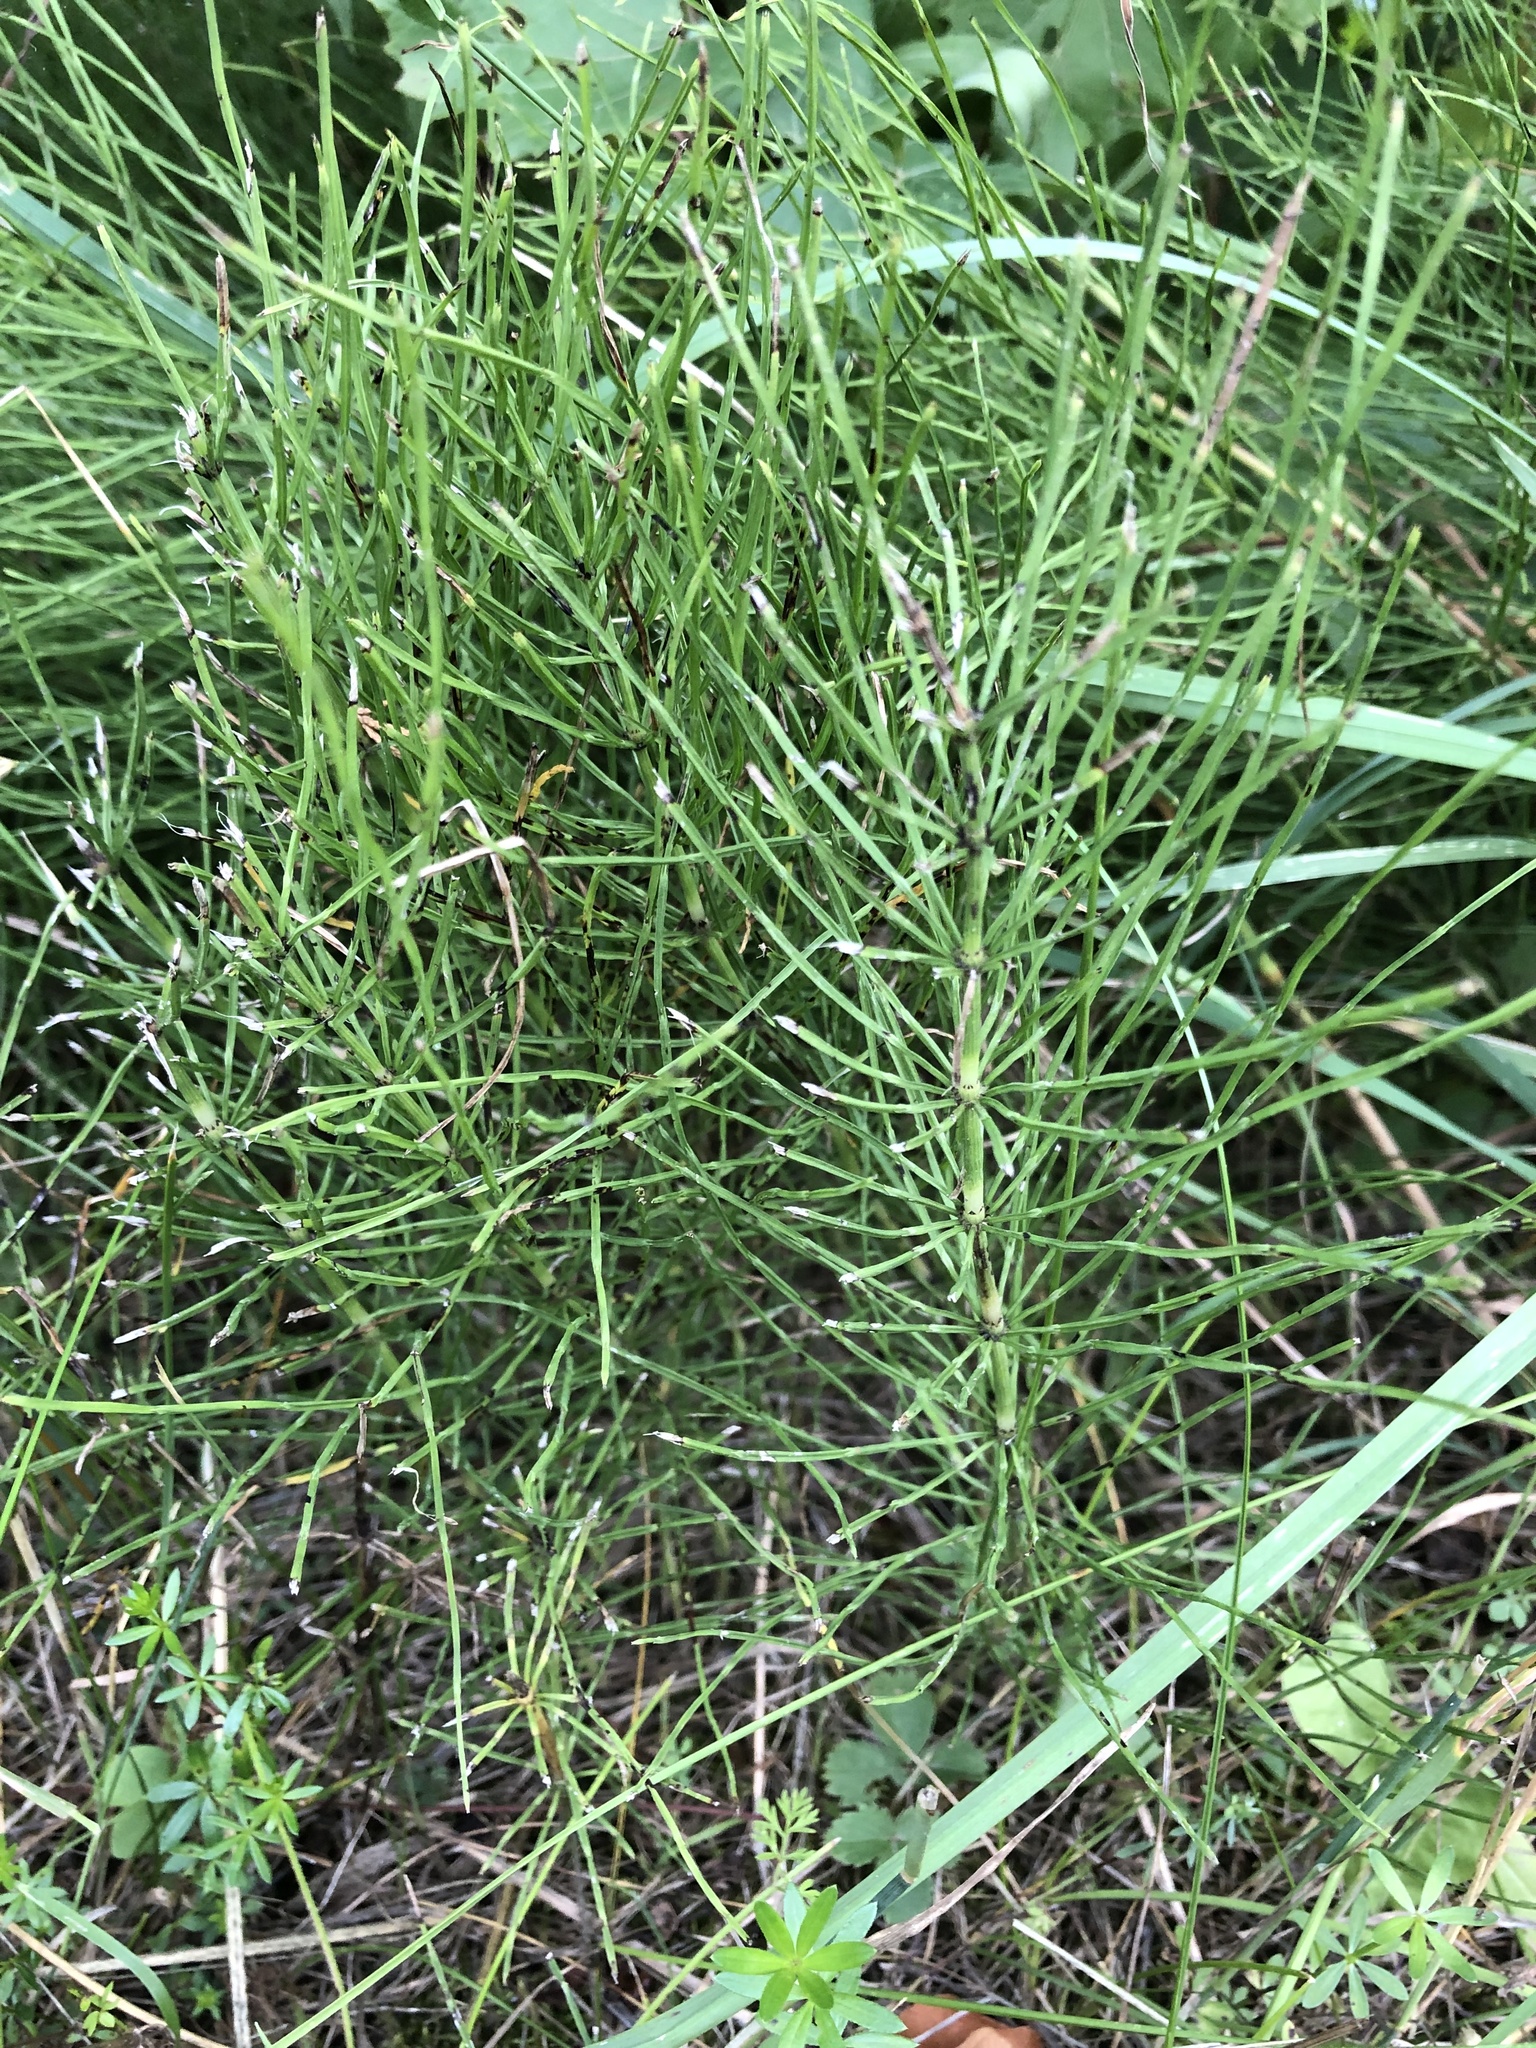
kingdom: Plantae
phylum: Tracheophyta
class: Polypodiopsida
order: Equisetales
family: Equisetaceae
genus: Equisetum
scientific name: Equisetum arvense
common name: Field horsetail
